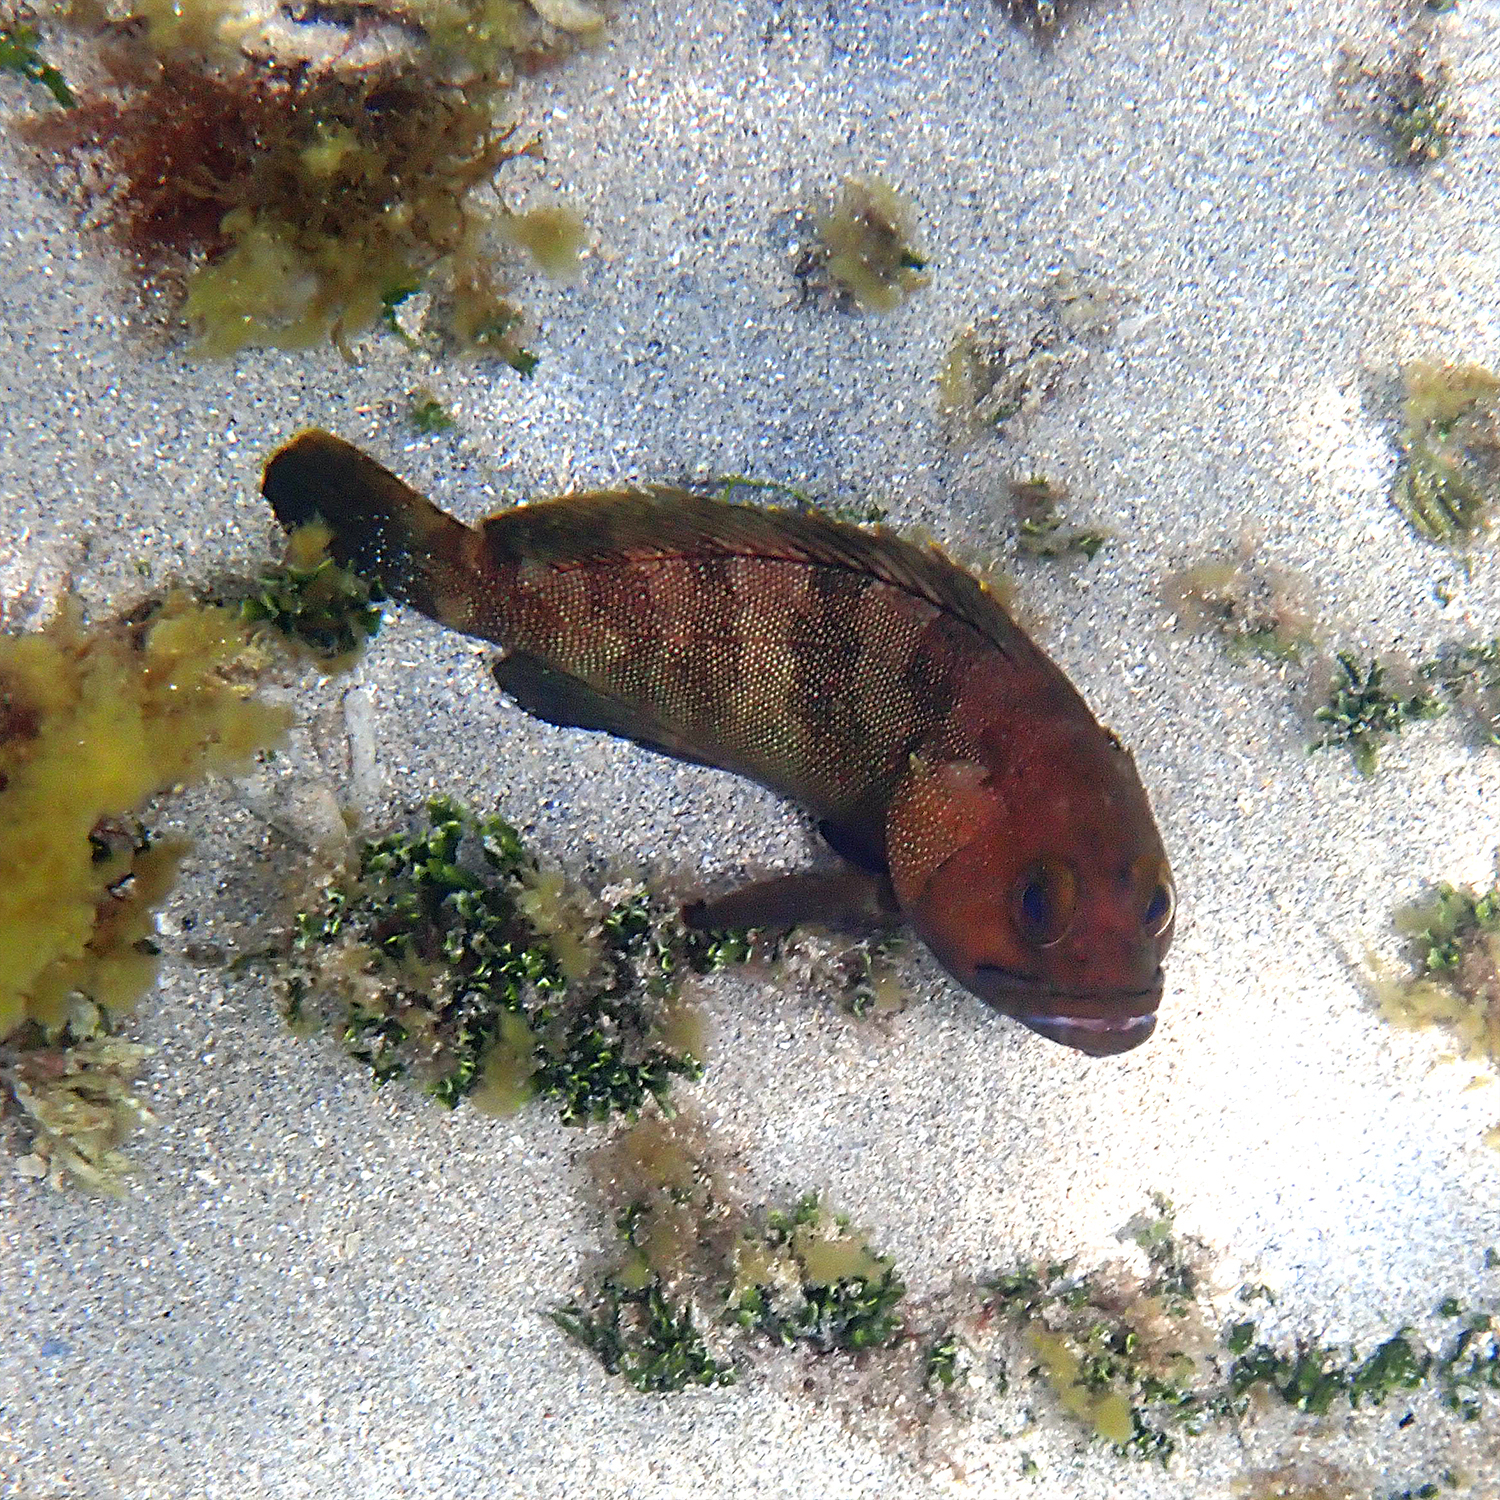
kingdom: Animalia
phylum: Chordata
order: Perciformes
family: Serranidae
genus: Epinephelus
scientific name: Epinephelus rivulatus
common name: Halfmoon grouper
